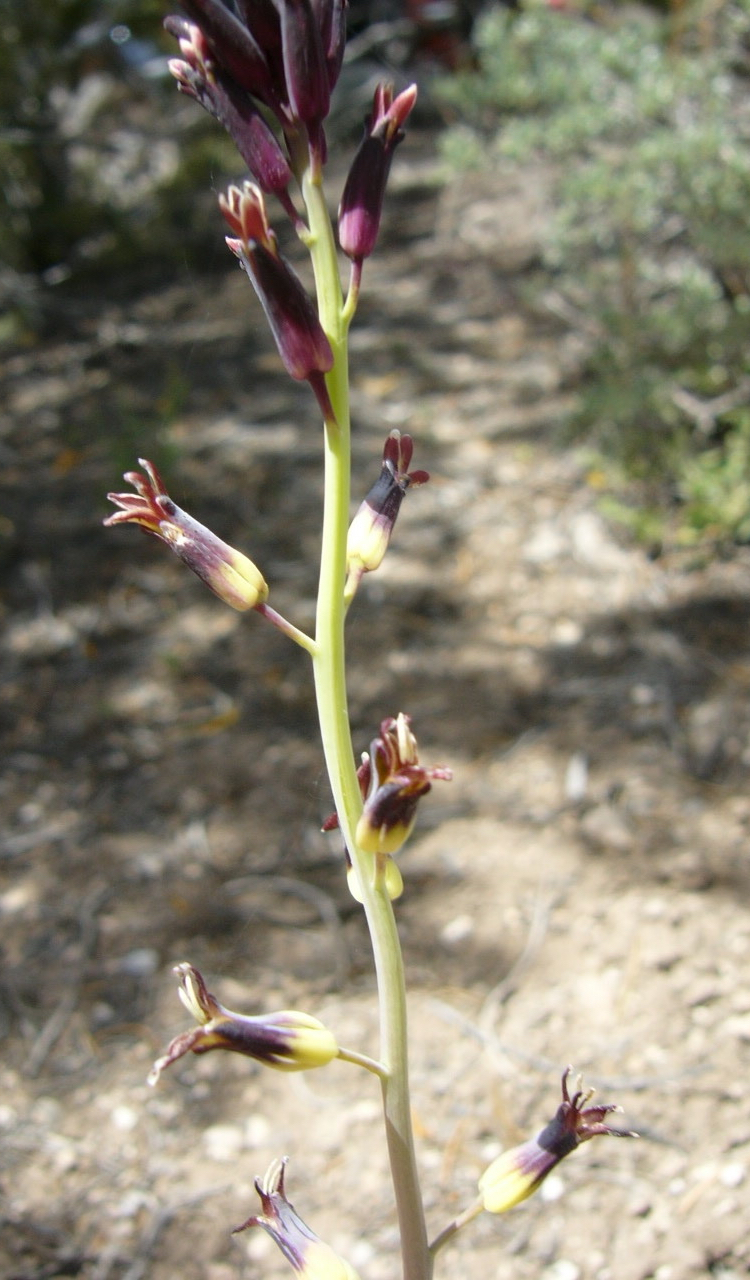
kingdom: Plantae
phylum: Tracheophyta
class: Magnoliopsida
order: Brassicales
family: Brassicaceae
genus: Streptanthus
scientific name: Streptanthus cordatus
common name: Heart-leaf jewel-flower
